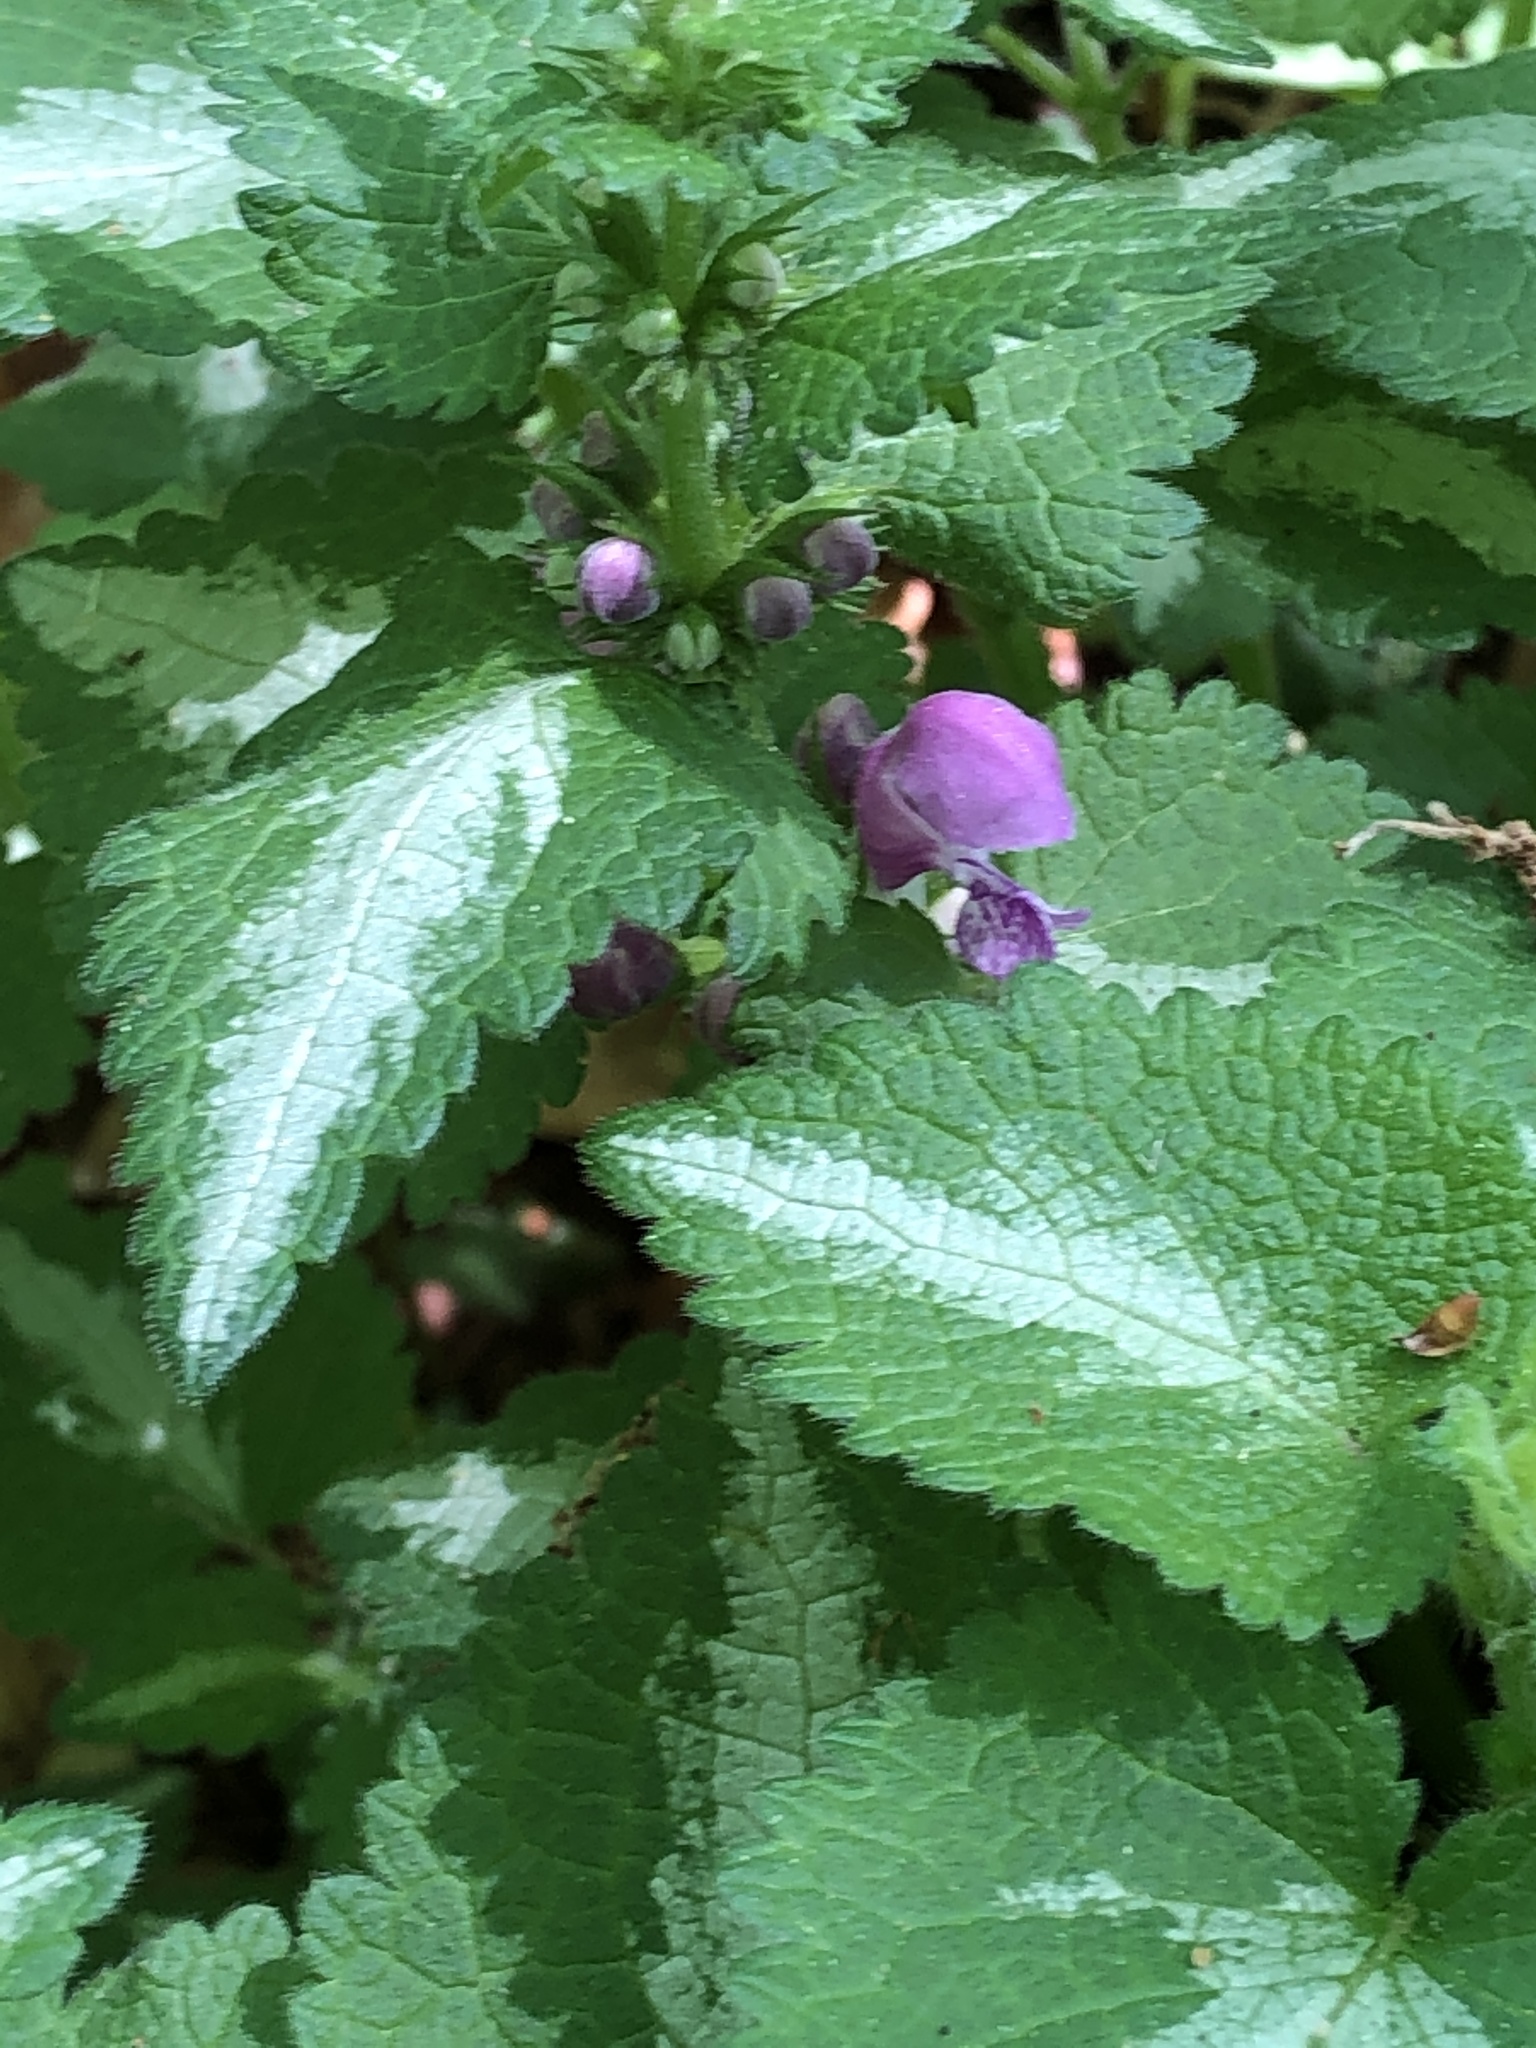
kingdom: Plantae
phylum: Tracheophyta
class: Magnoliopsida
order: Lamiales
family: Lamiaceae
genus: Lamium
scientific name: Lamium maculatum
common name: Spotted dead-nettle
